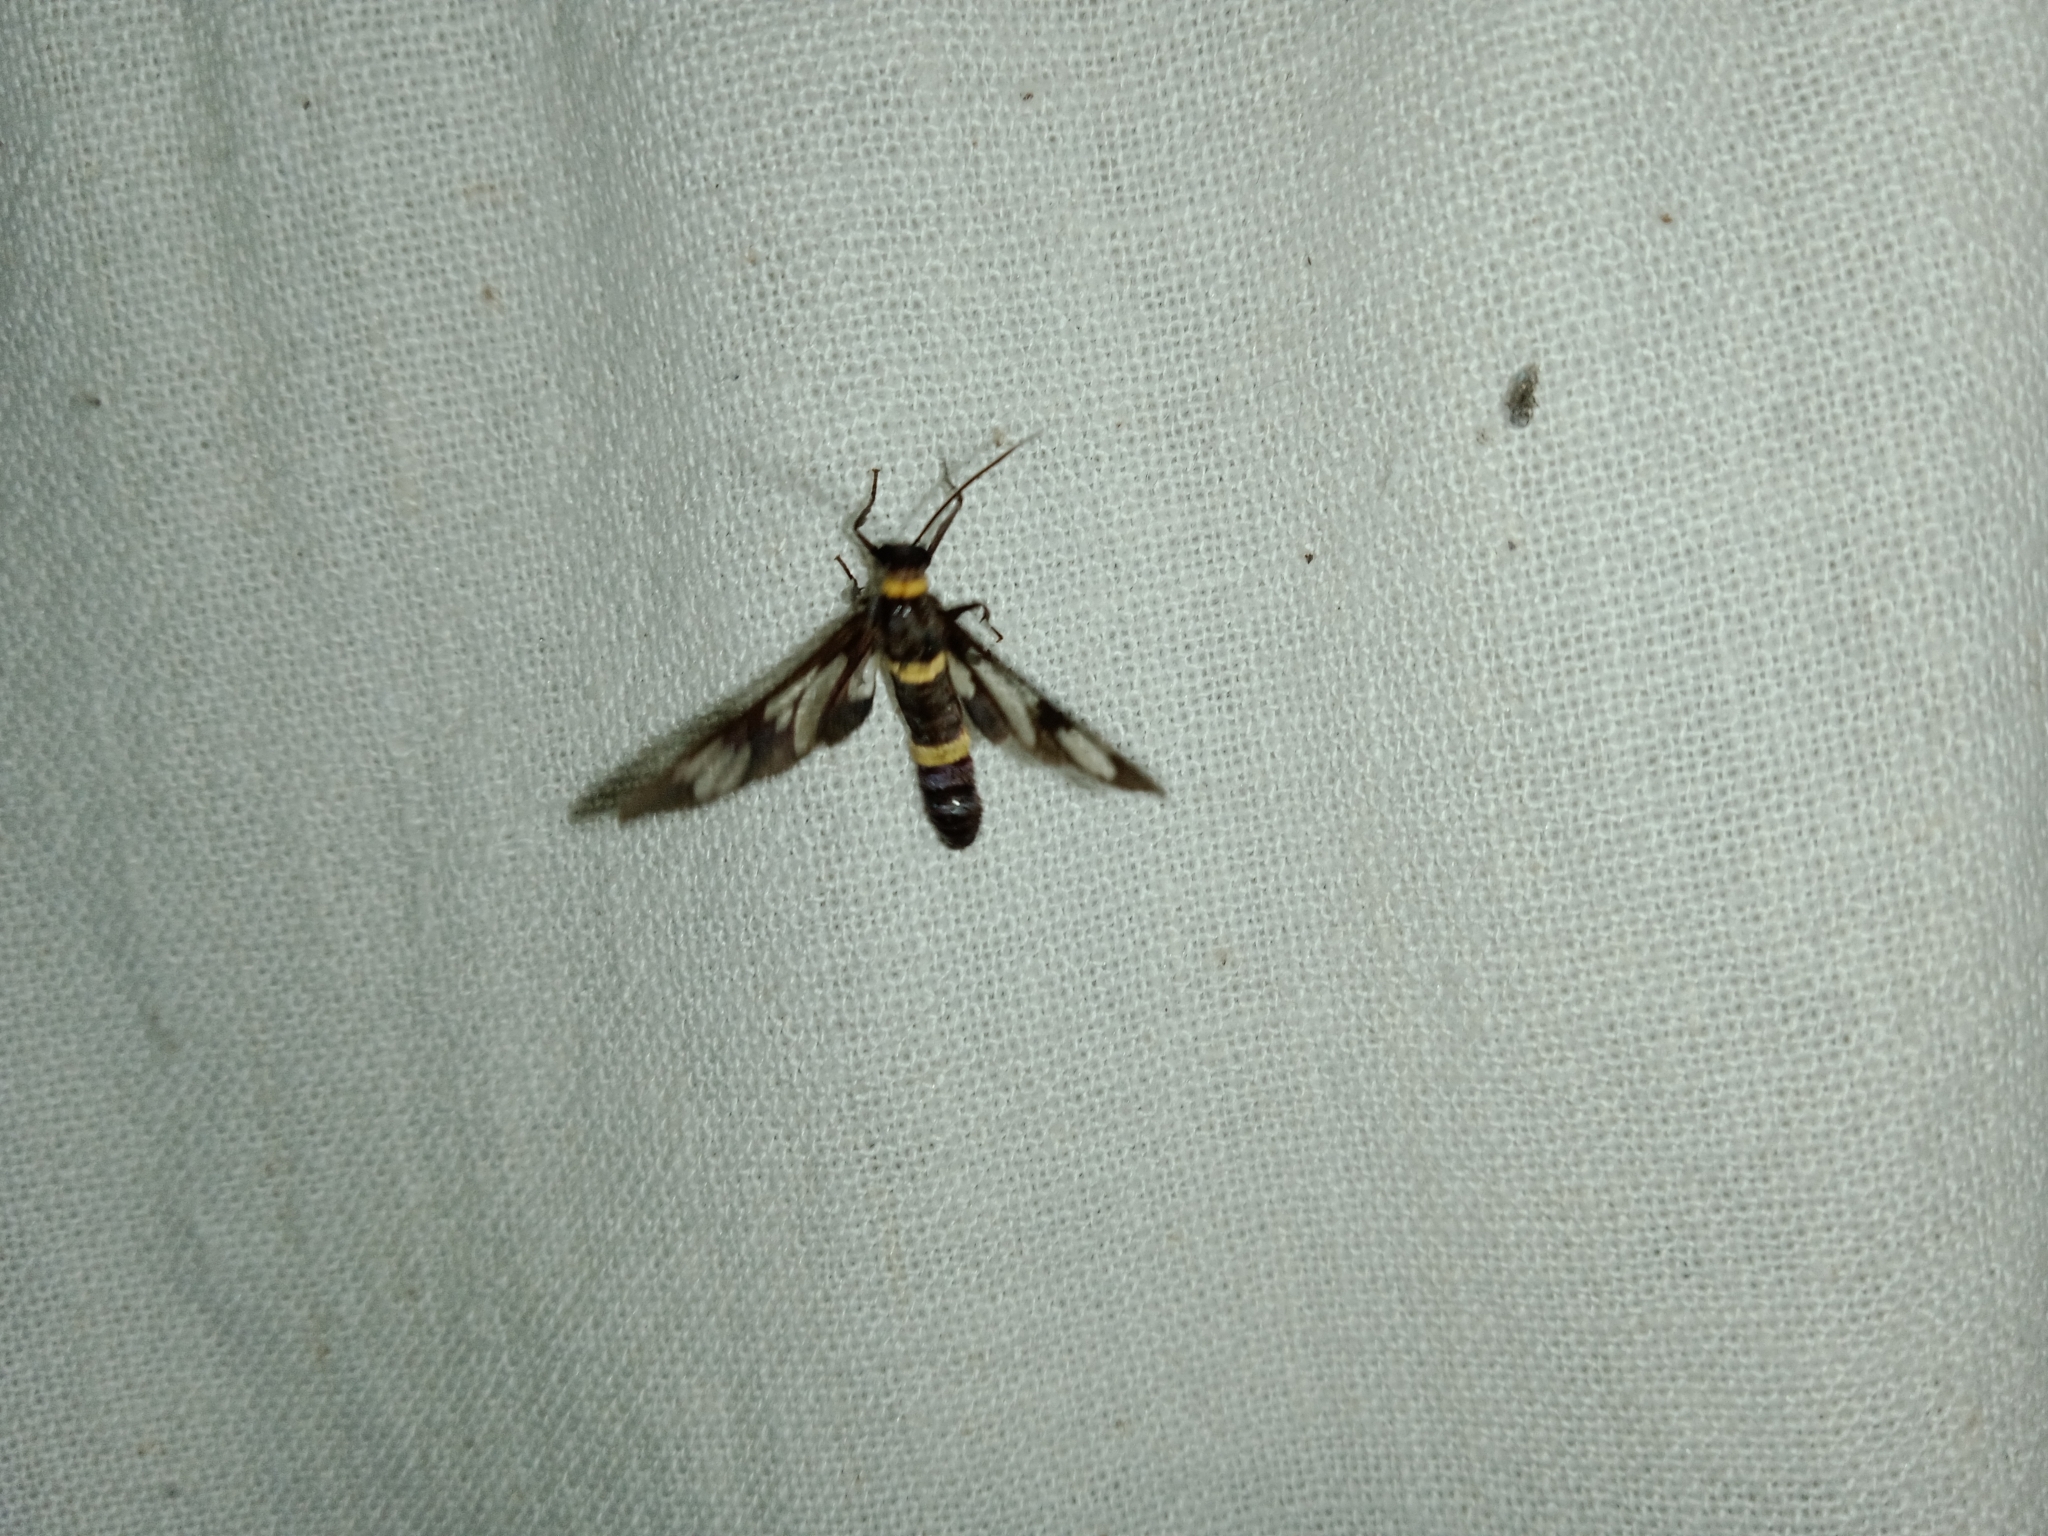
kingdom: Animalia
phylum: Arthropoda
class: Insecta
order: Lepidoptera
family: Erebidae
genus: Syntomoides
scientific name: Syntomoides imaon
